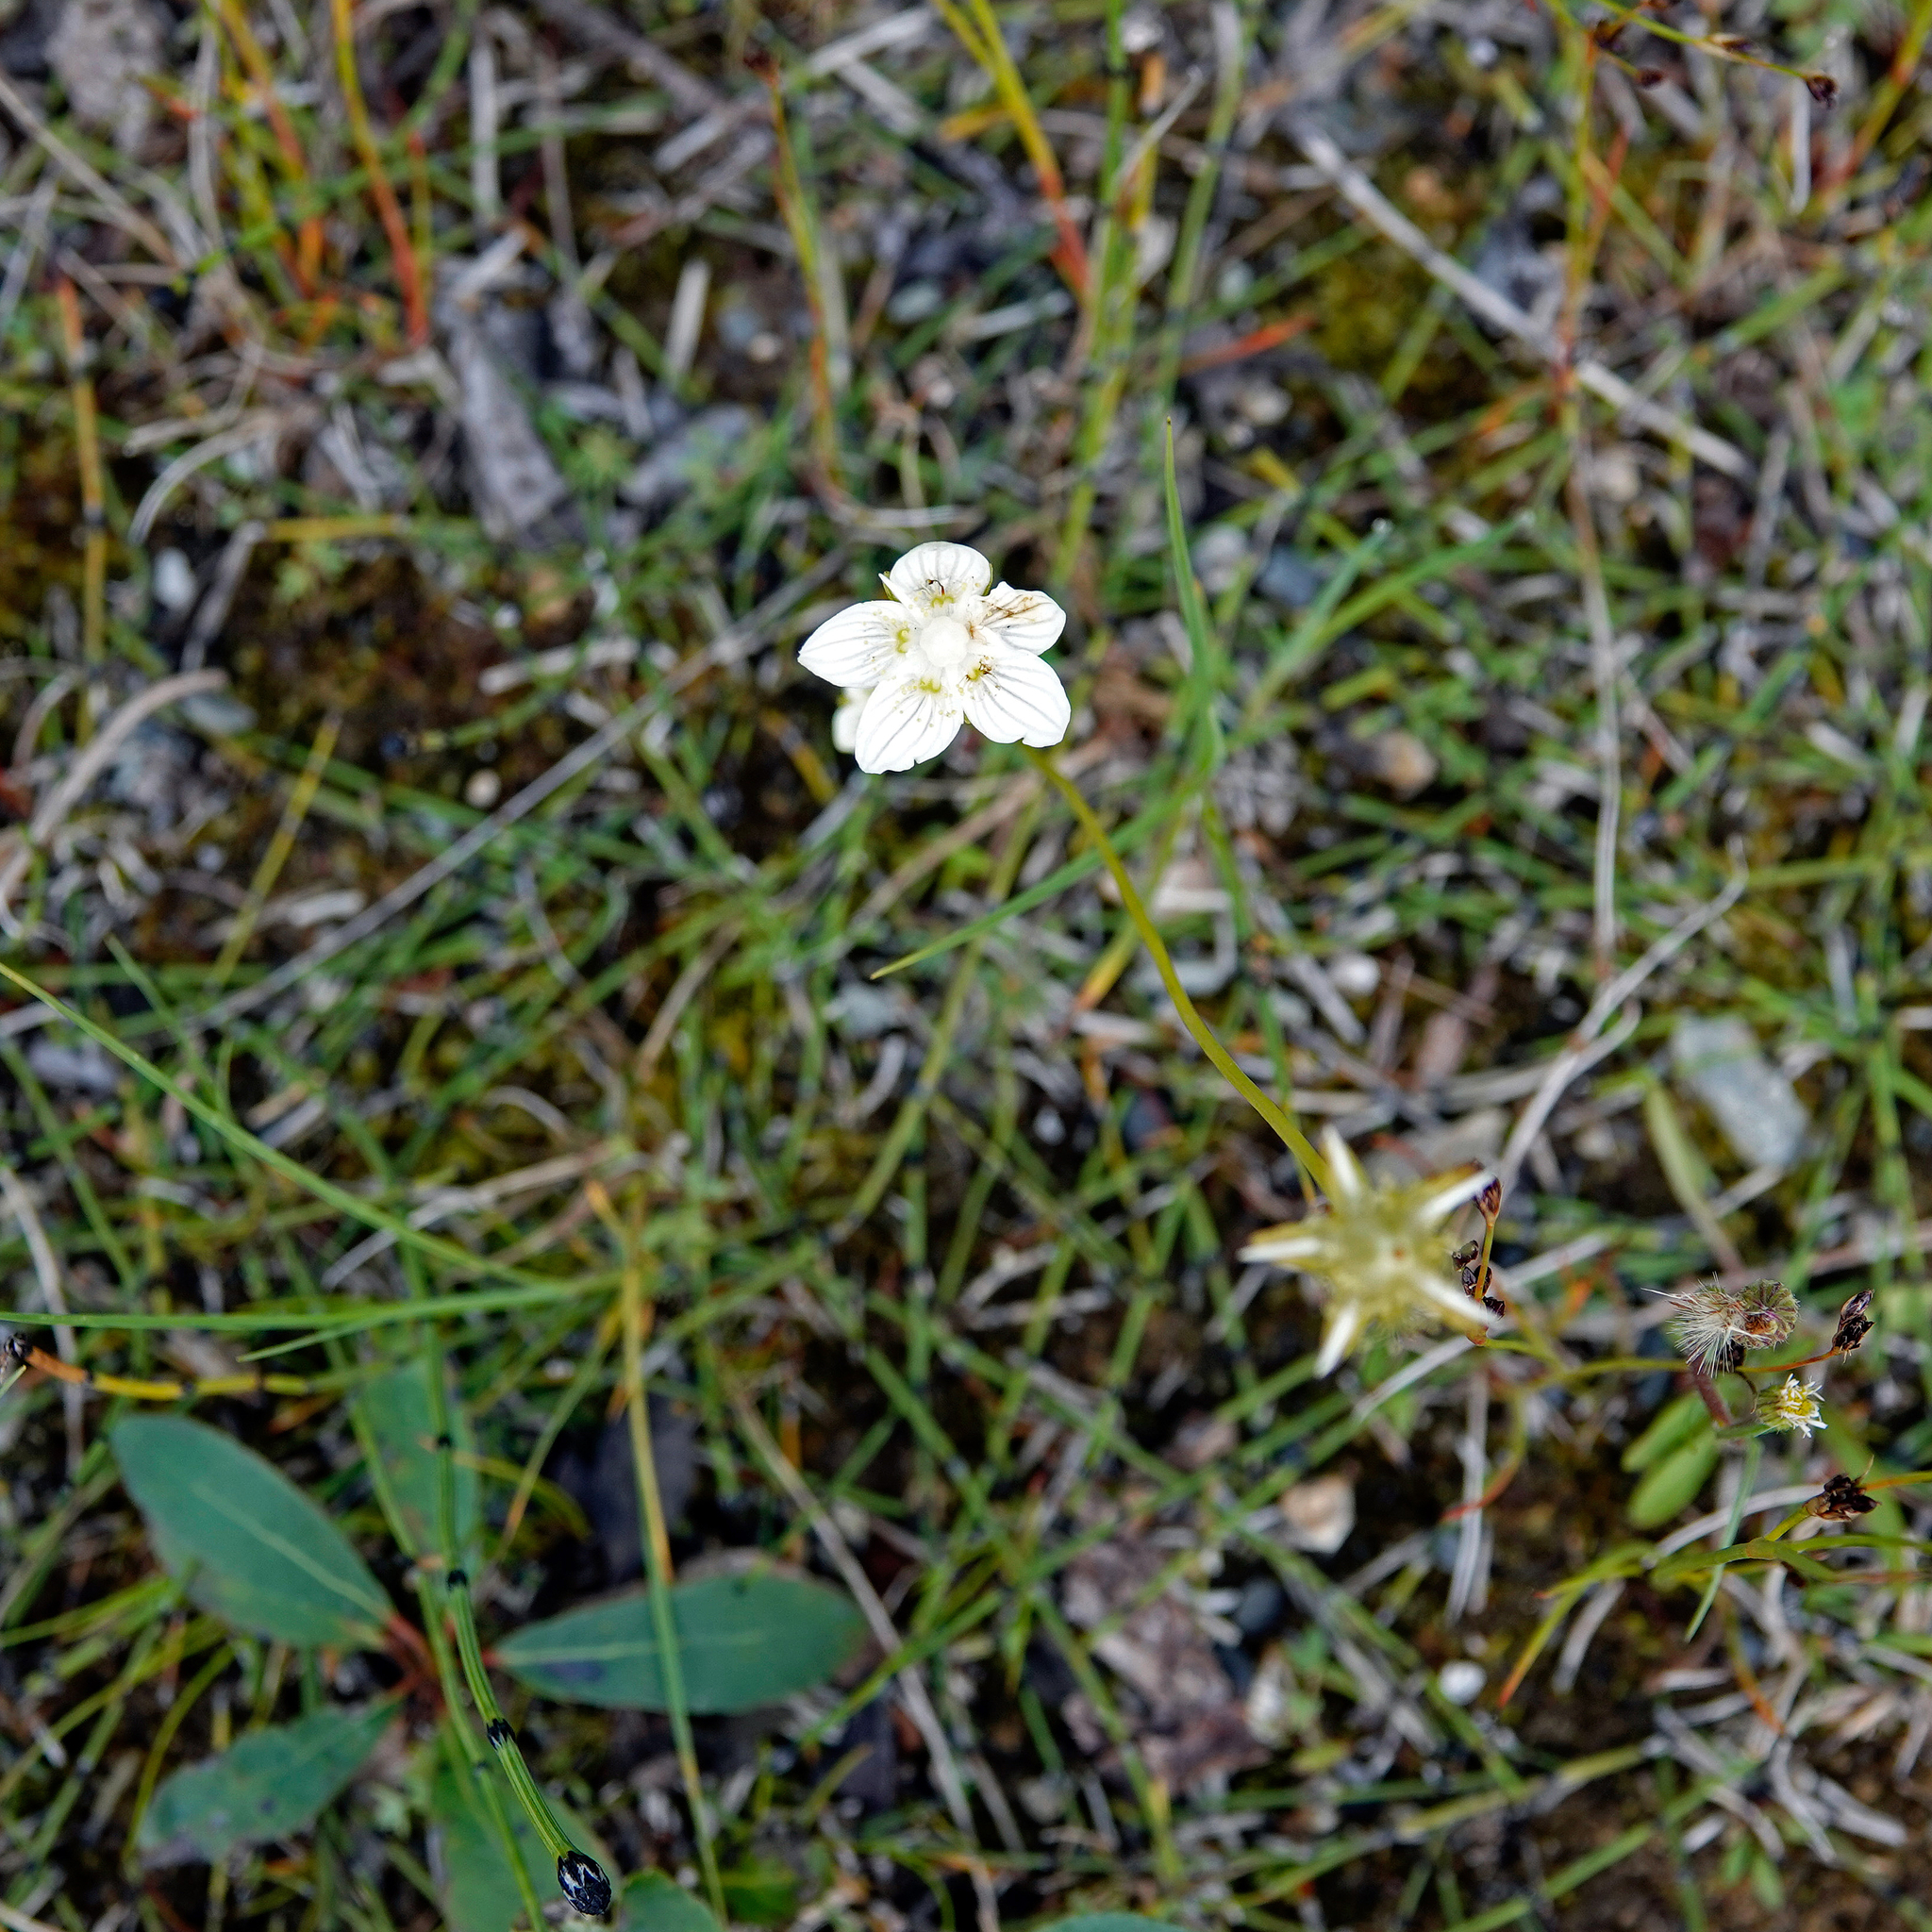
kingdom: Plantae
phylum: Tracheophyta
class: Magnoliopsida
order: Celastrales
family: Parnassiaceae
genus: Parnassia
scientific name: Parnassia palustris
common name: Grass-of-parnassus
